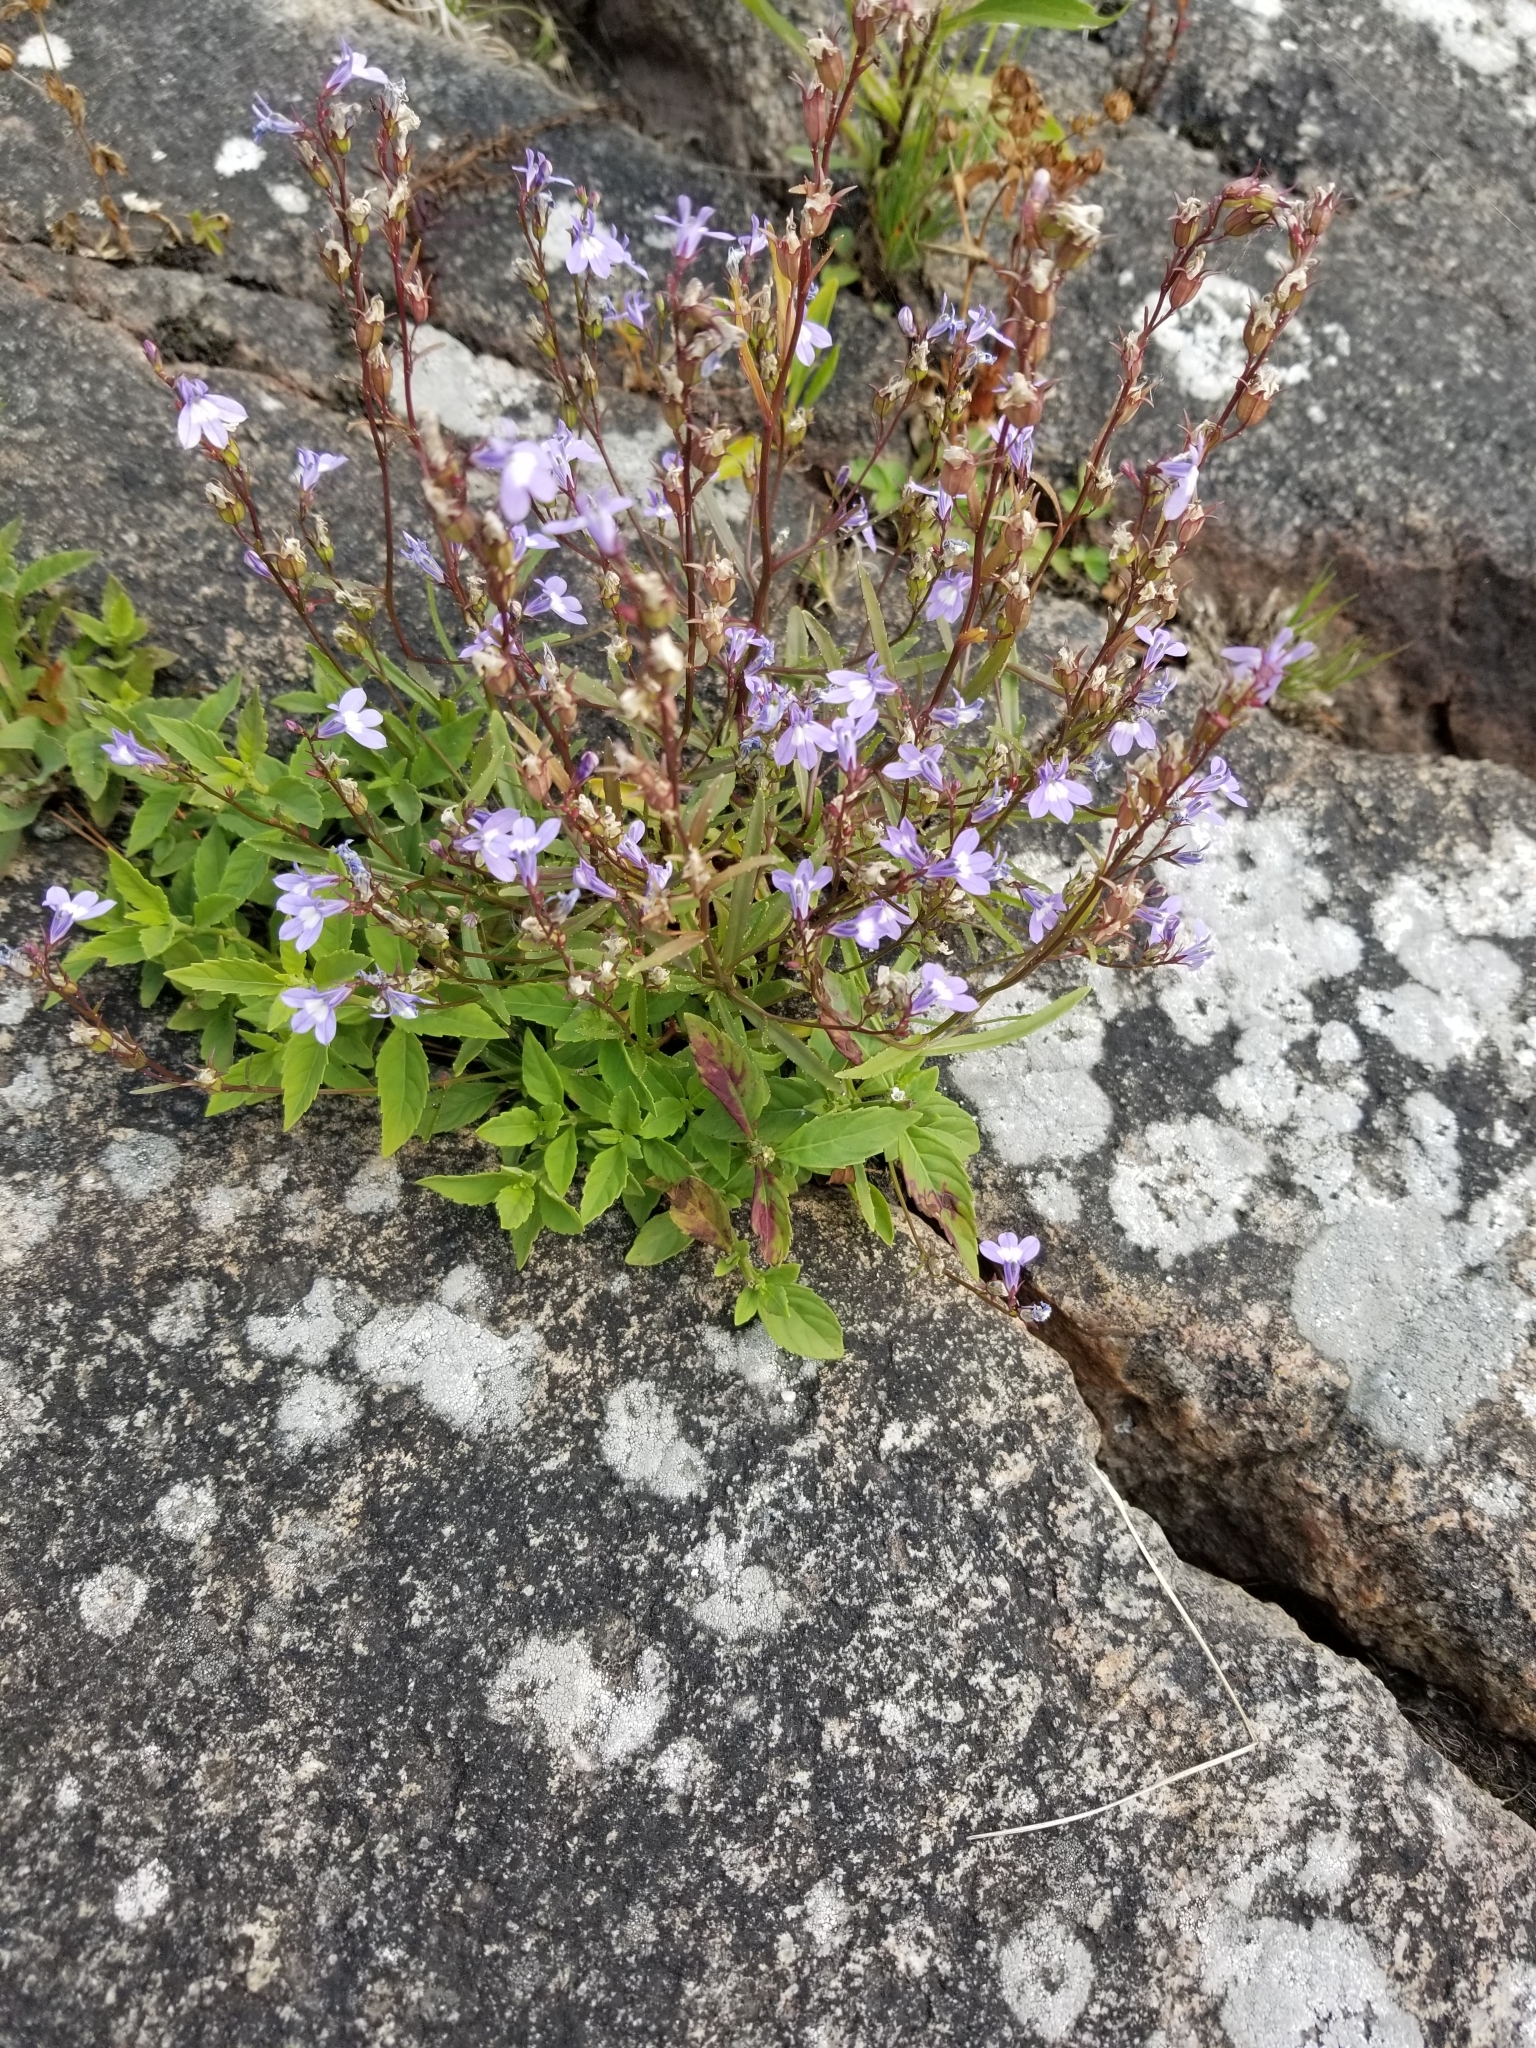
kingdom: Plantae
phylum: Tracheophyta
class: Magnoliopsida
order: Asterales
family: Campanulaceae
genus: Lobelia
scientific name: Lobelia kalmii
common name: Kalm's lobelia
